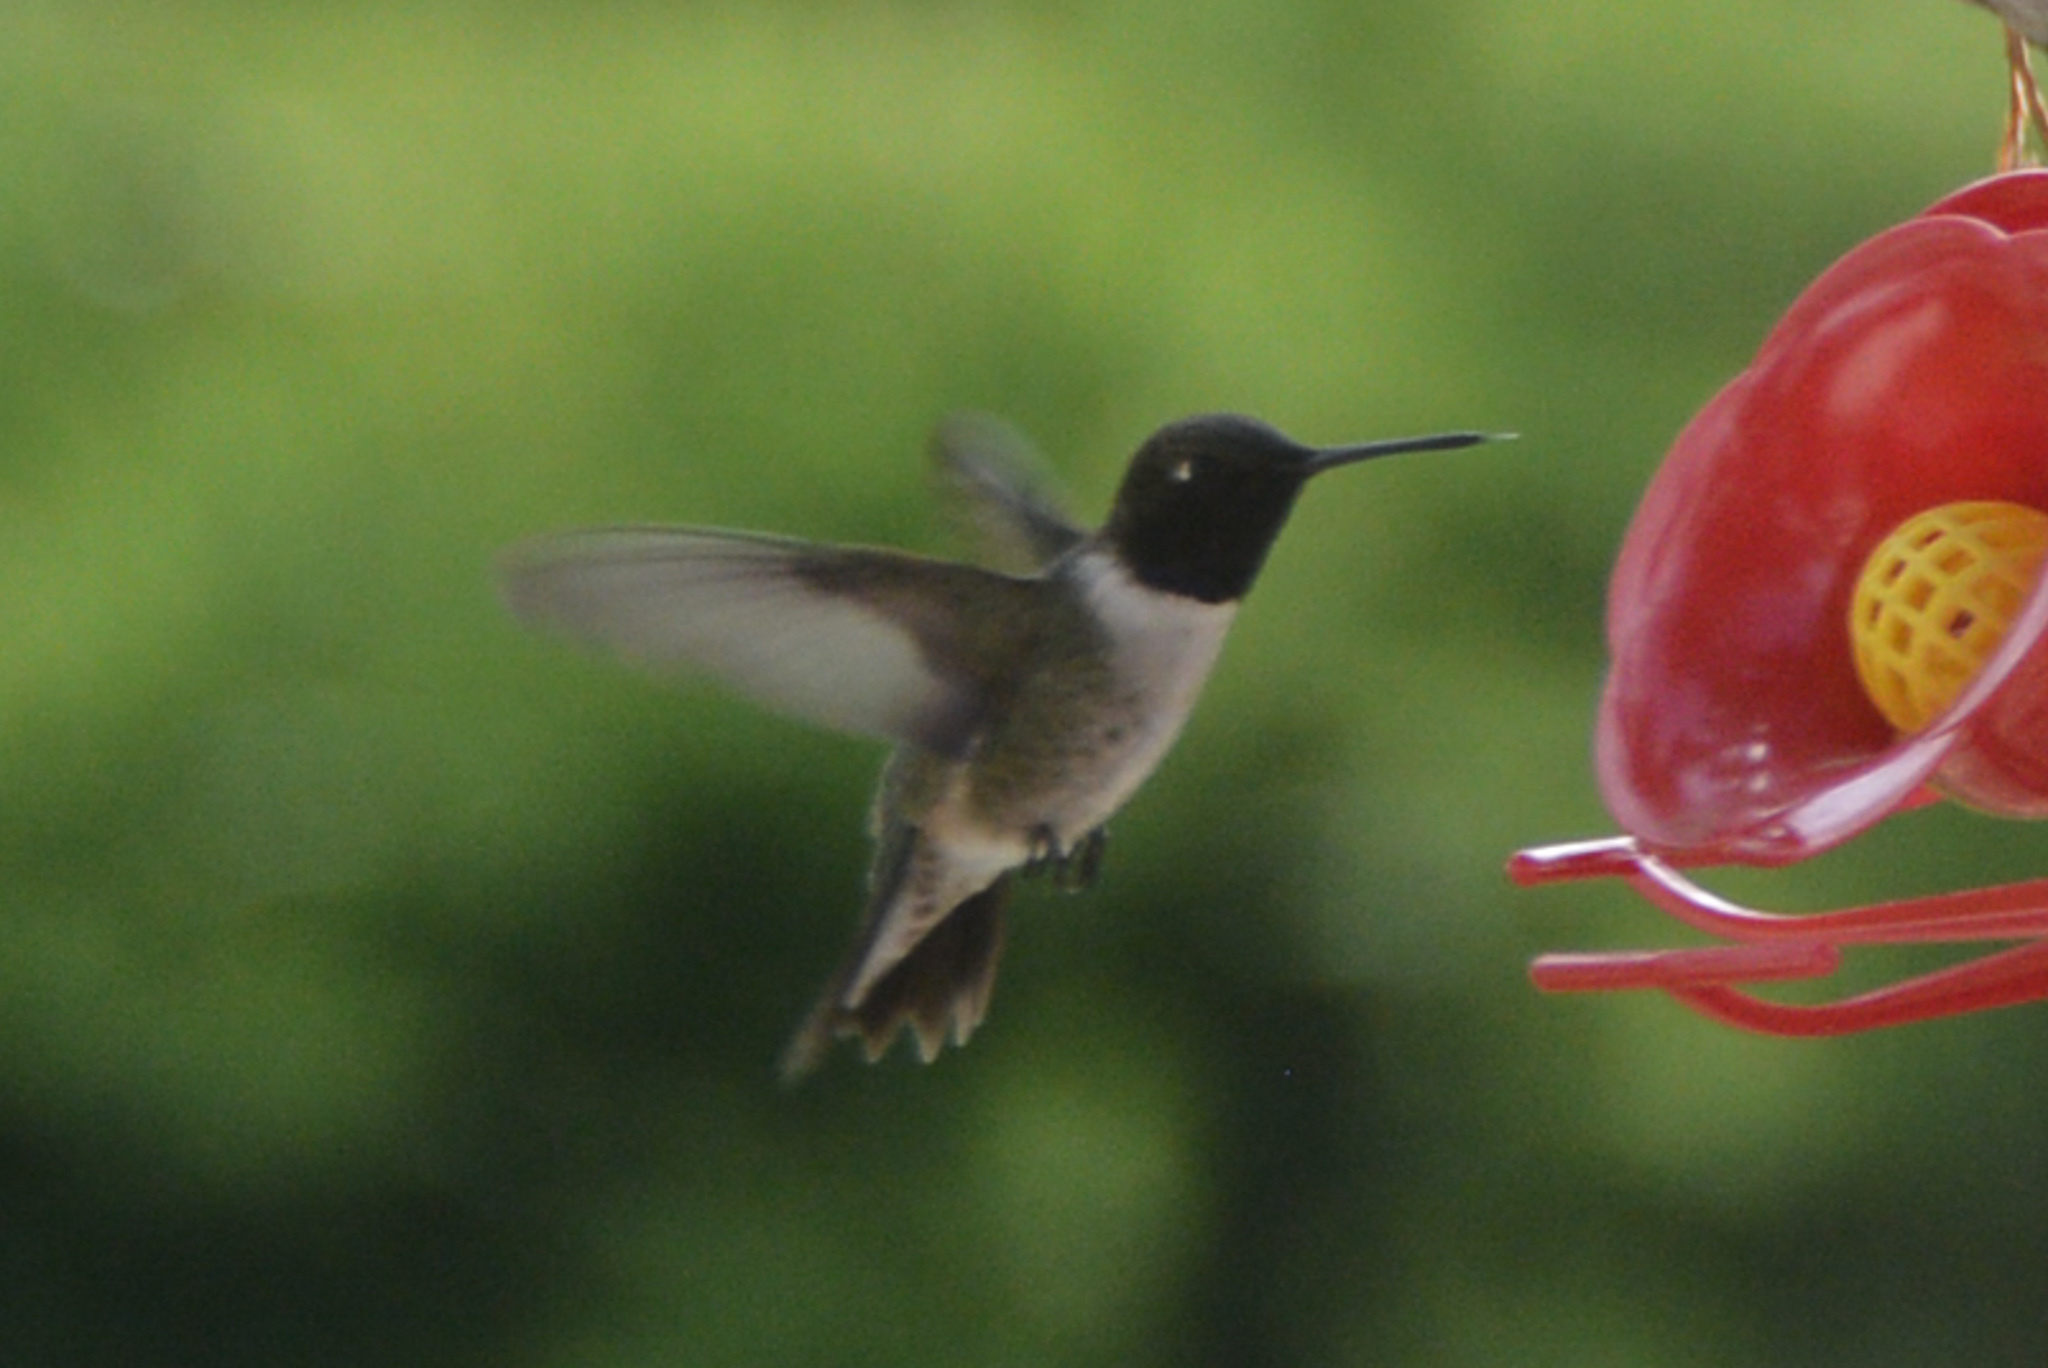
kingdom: Animalia
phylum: Chordata
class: Aves
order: Apodiformes
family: Trochilidae
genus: Archilochus
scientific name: Archilochus alexandri
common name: Black-chinned hummingbird
